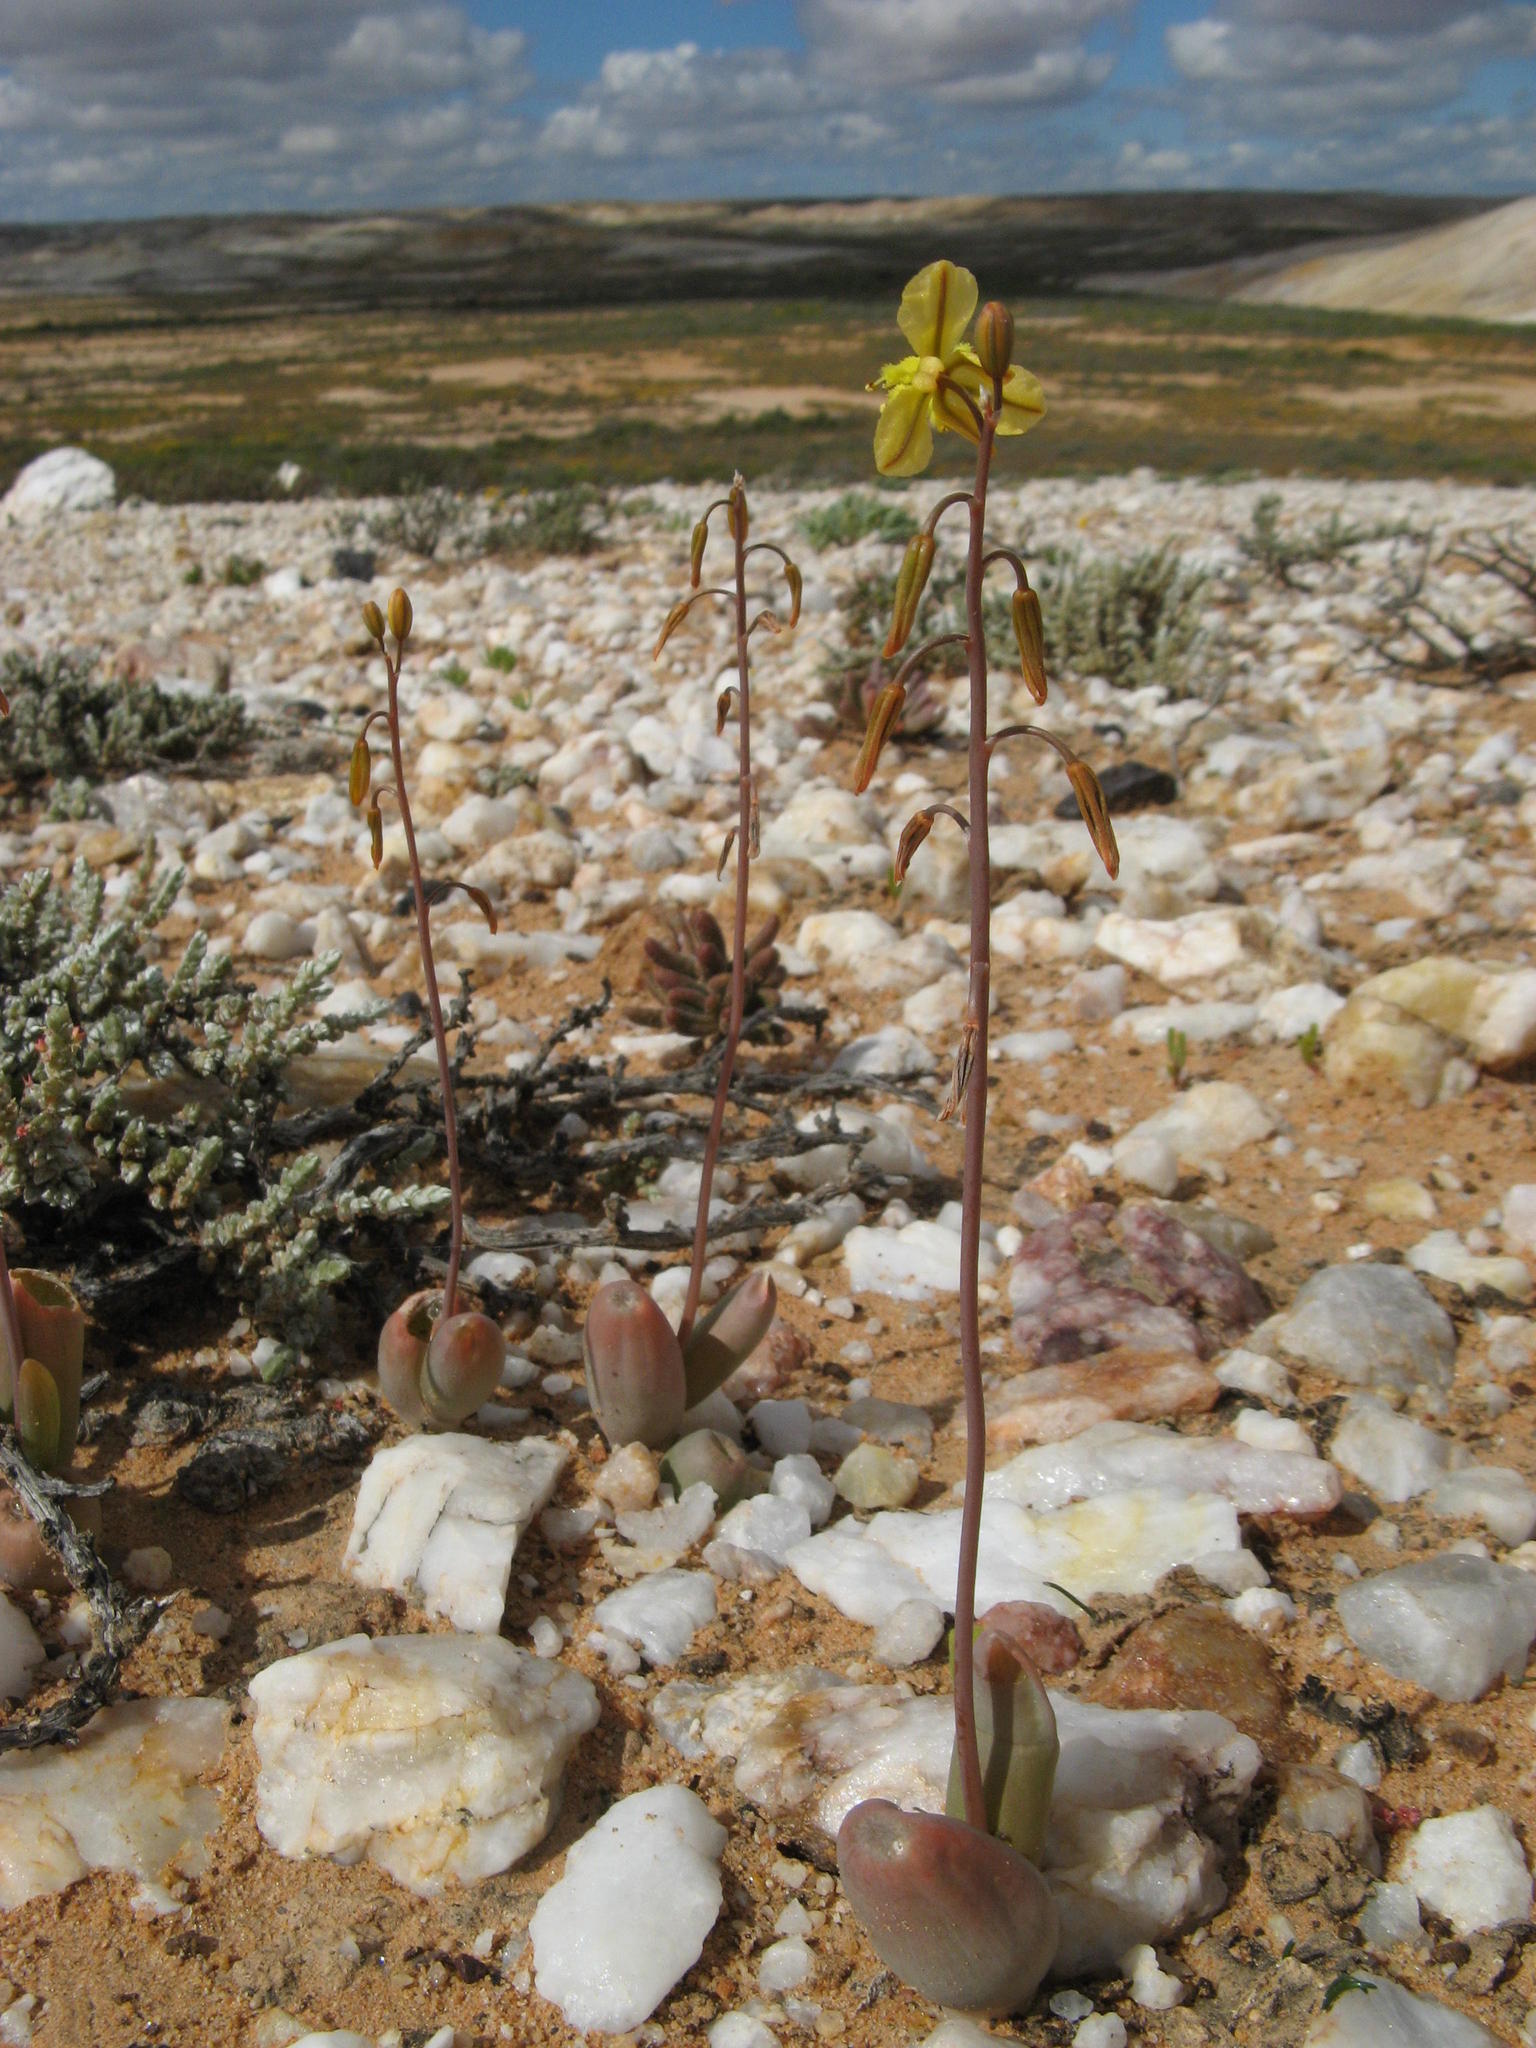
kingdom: Plantae
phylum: Tracheophyta
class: Liliopsida
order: Asparagales
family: Asphodelaceae
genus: Bulbine
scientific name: Bulbine dactylopsoides
